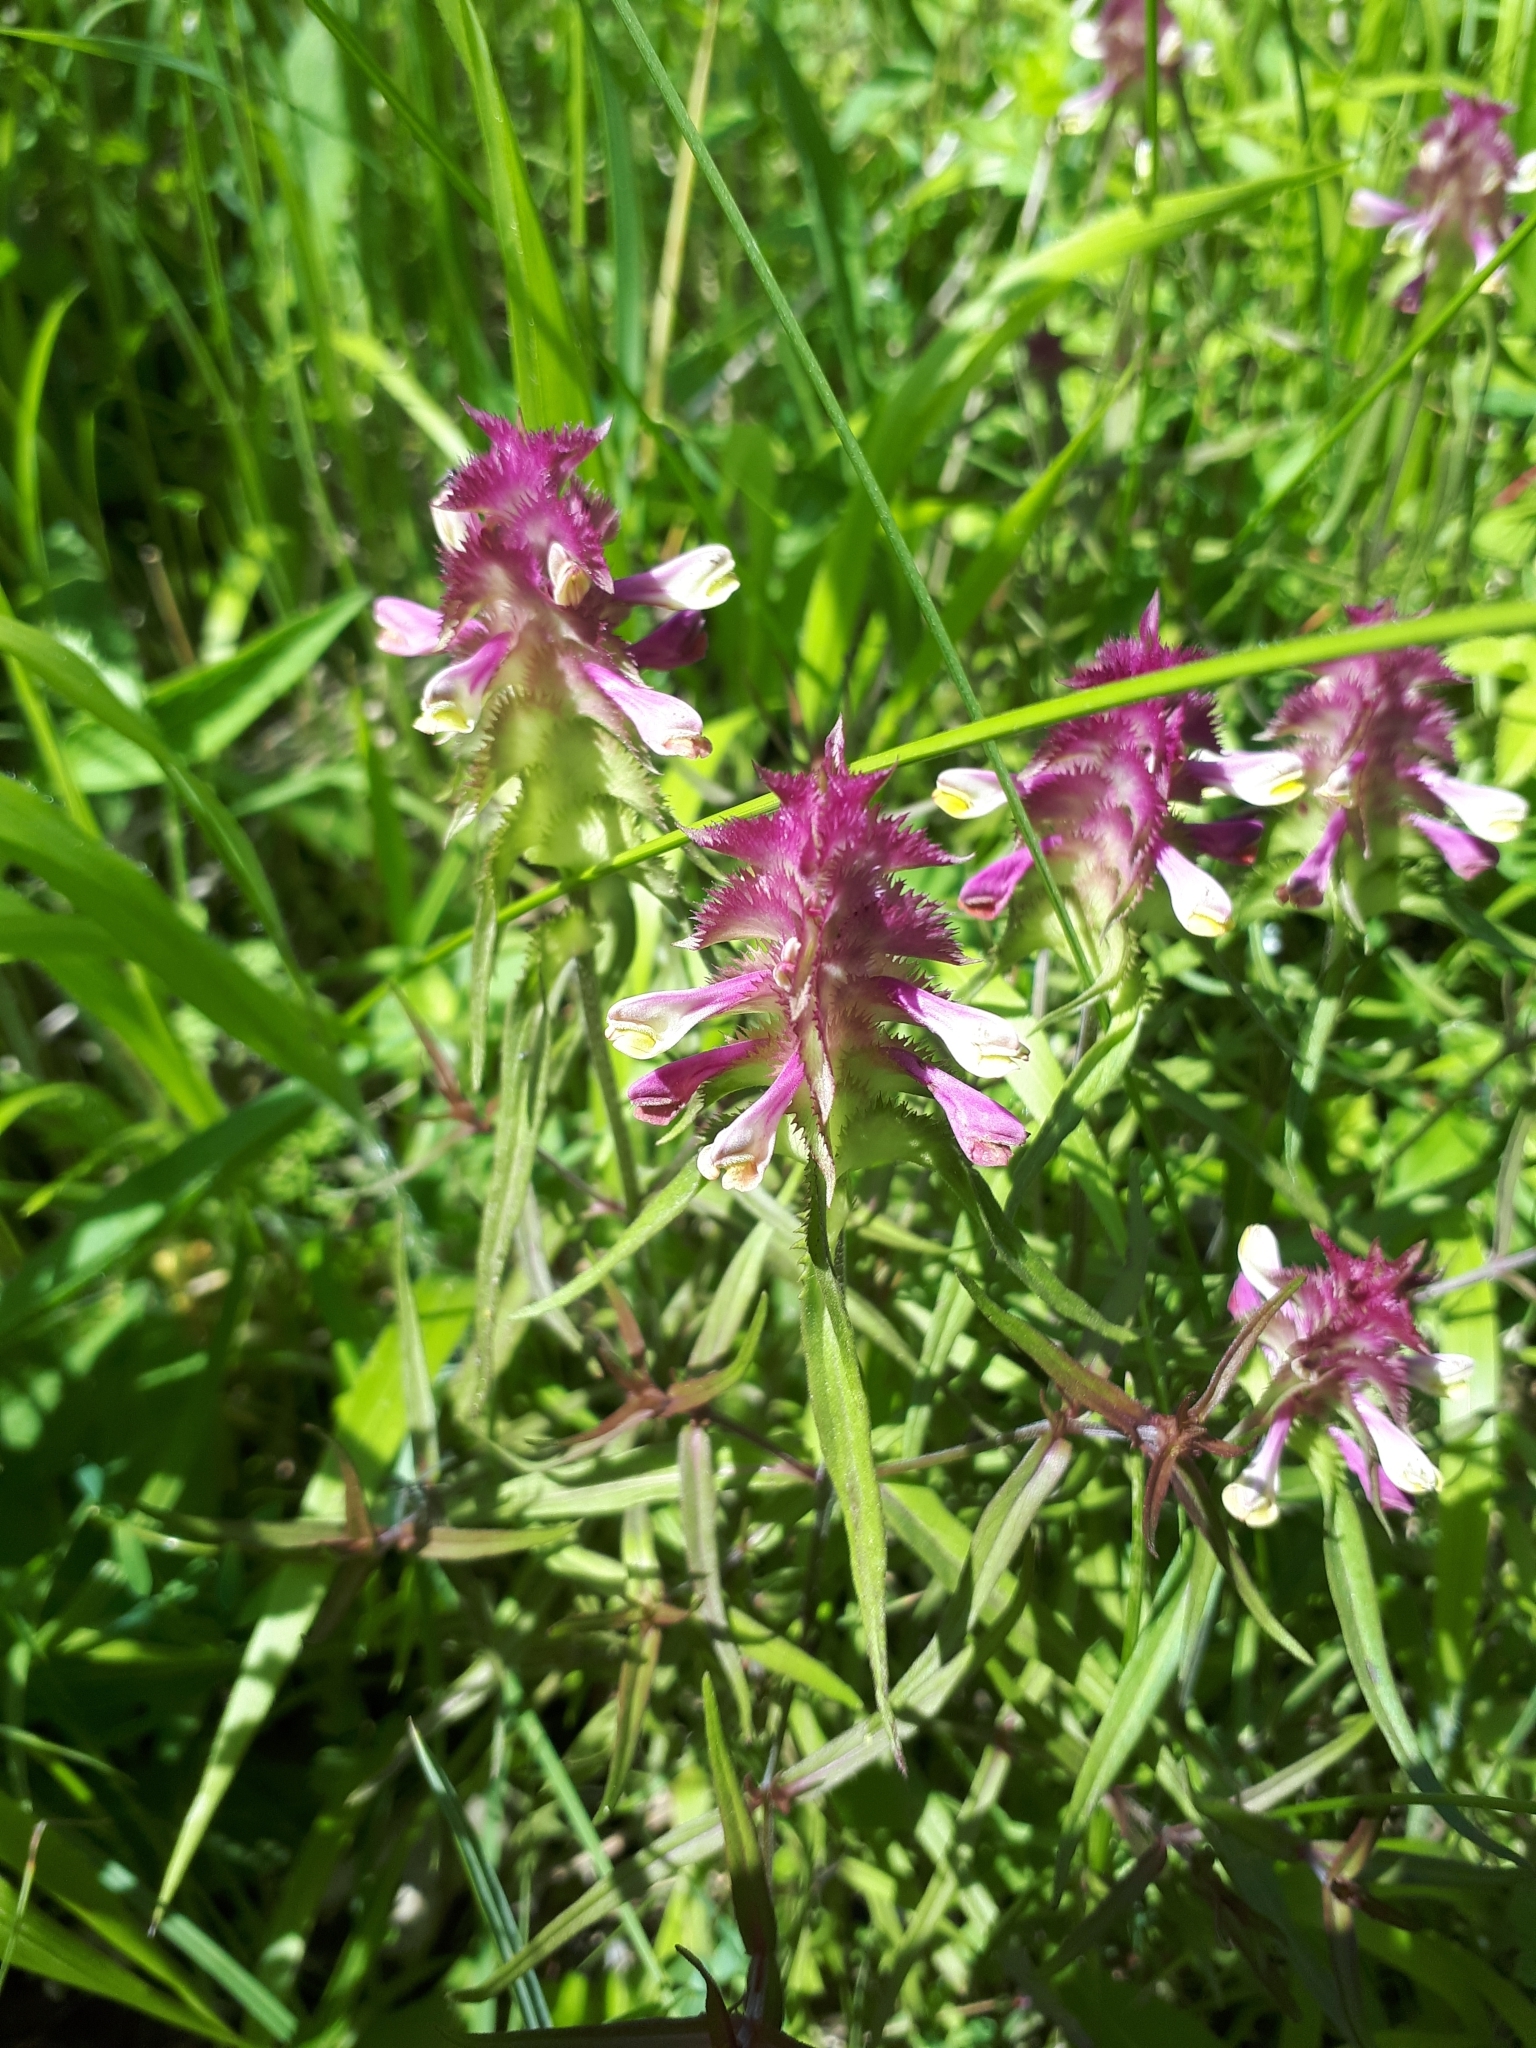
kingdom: Plantae
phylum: Tracheophyta
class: Magnoliopsida
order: Lamiales
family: Orobanchaceae
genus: Melampyrum
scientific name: Melampyrum cristatum
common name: Crested cow-wheat
